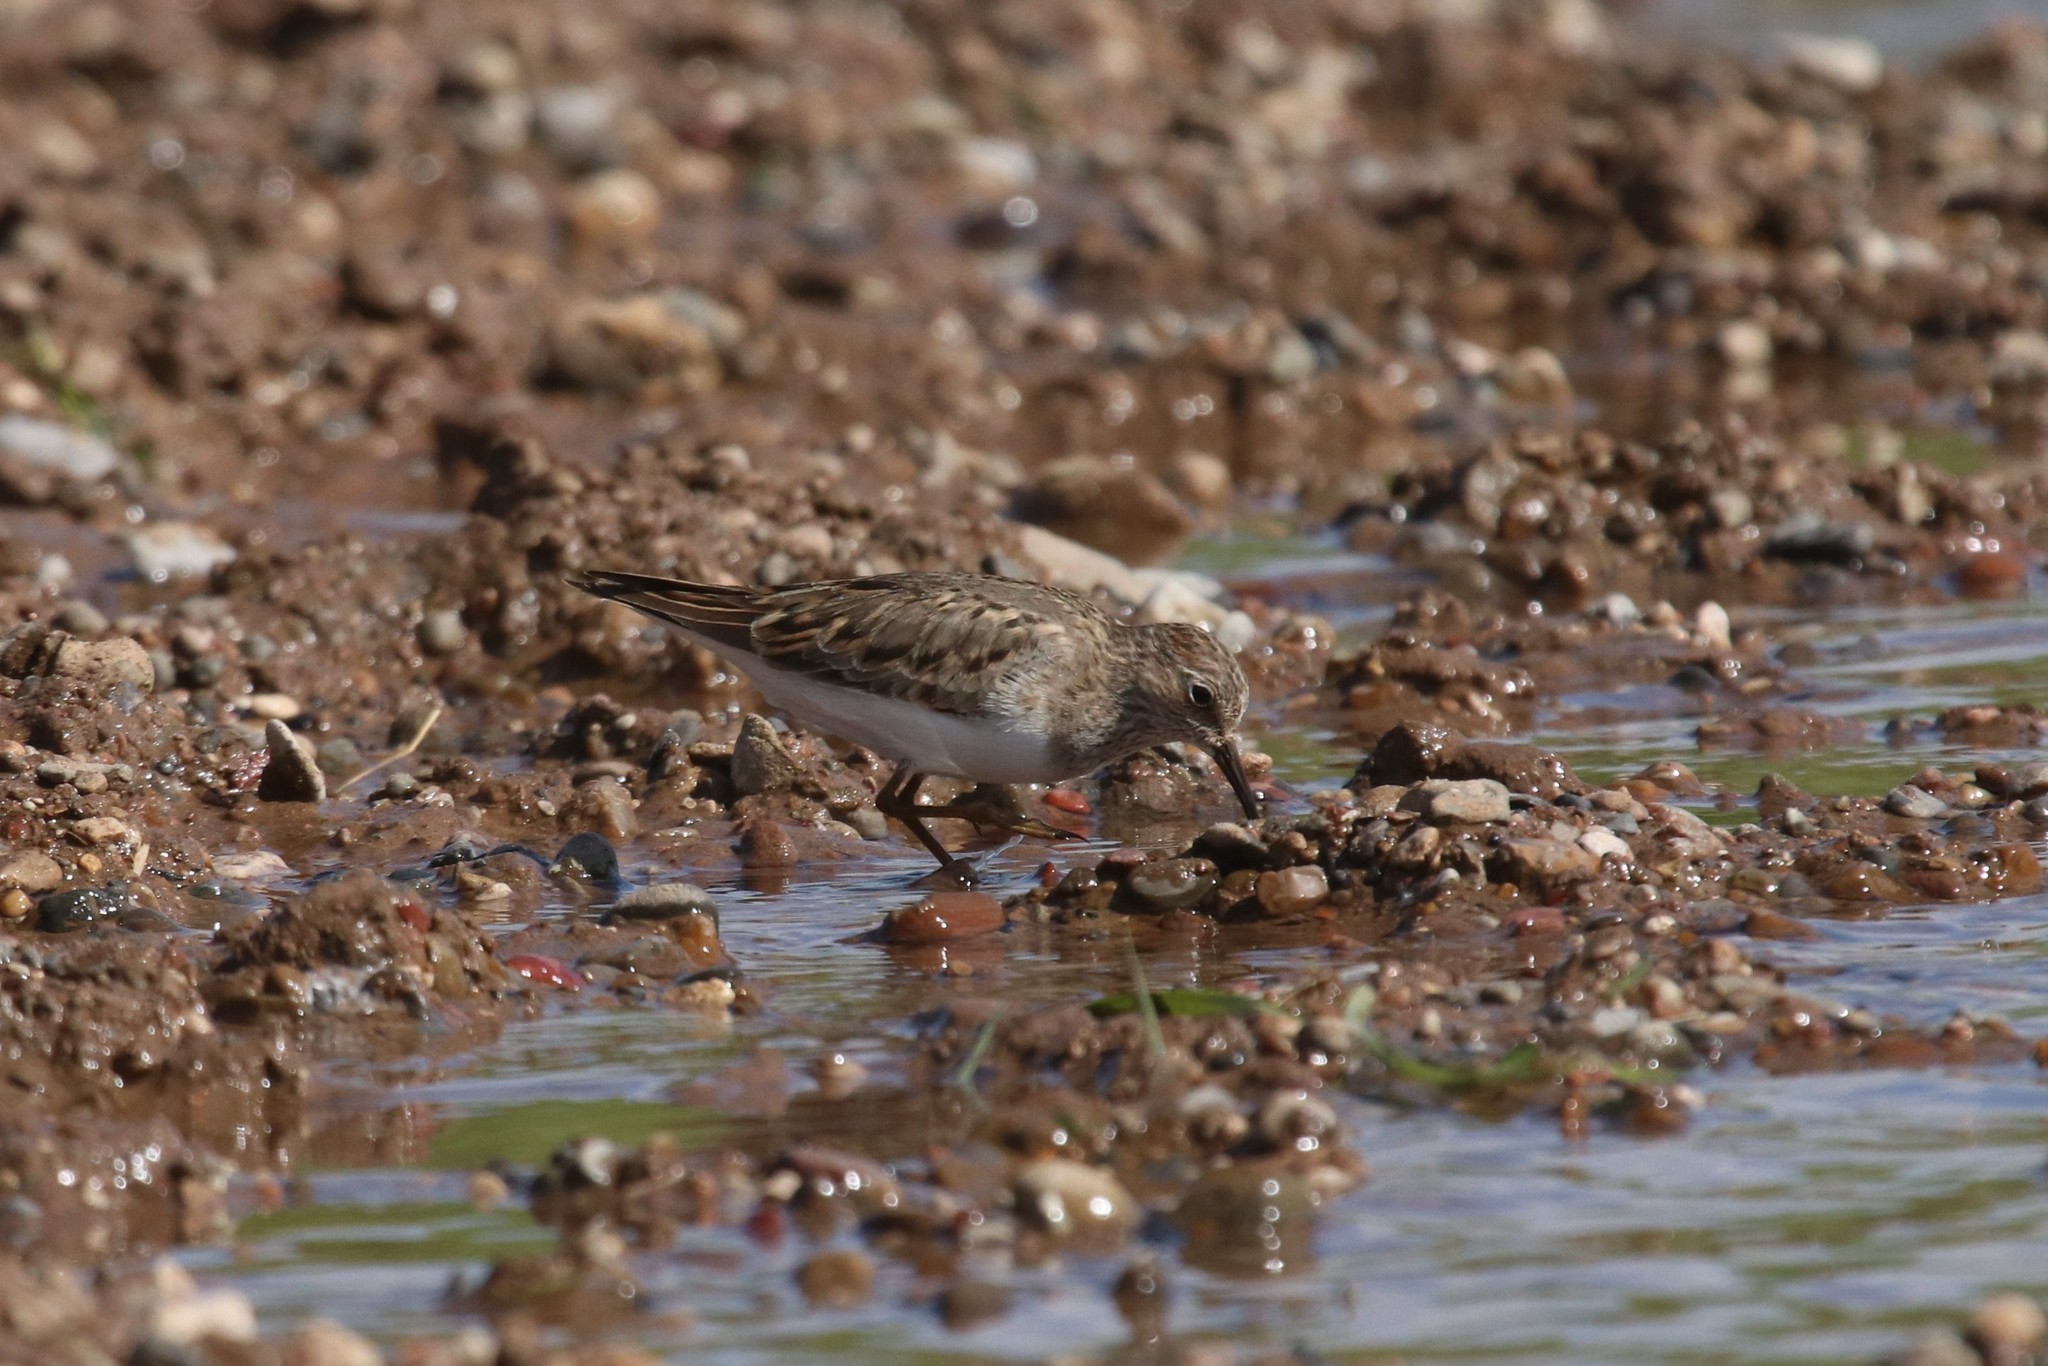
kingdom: Animalia
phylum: Chordata
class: Aves
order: Charadriiformes
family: Scolopacidae
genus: Calidris
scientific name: Calidris temminckii
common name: Temminck's stint
